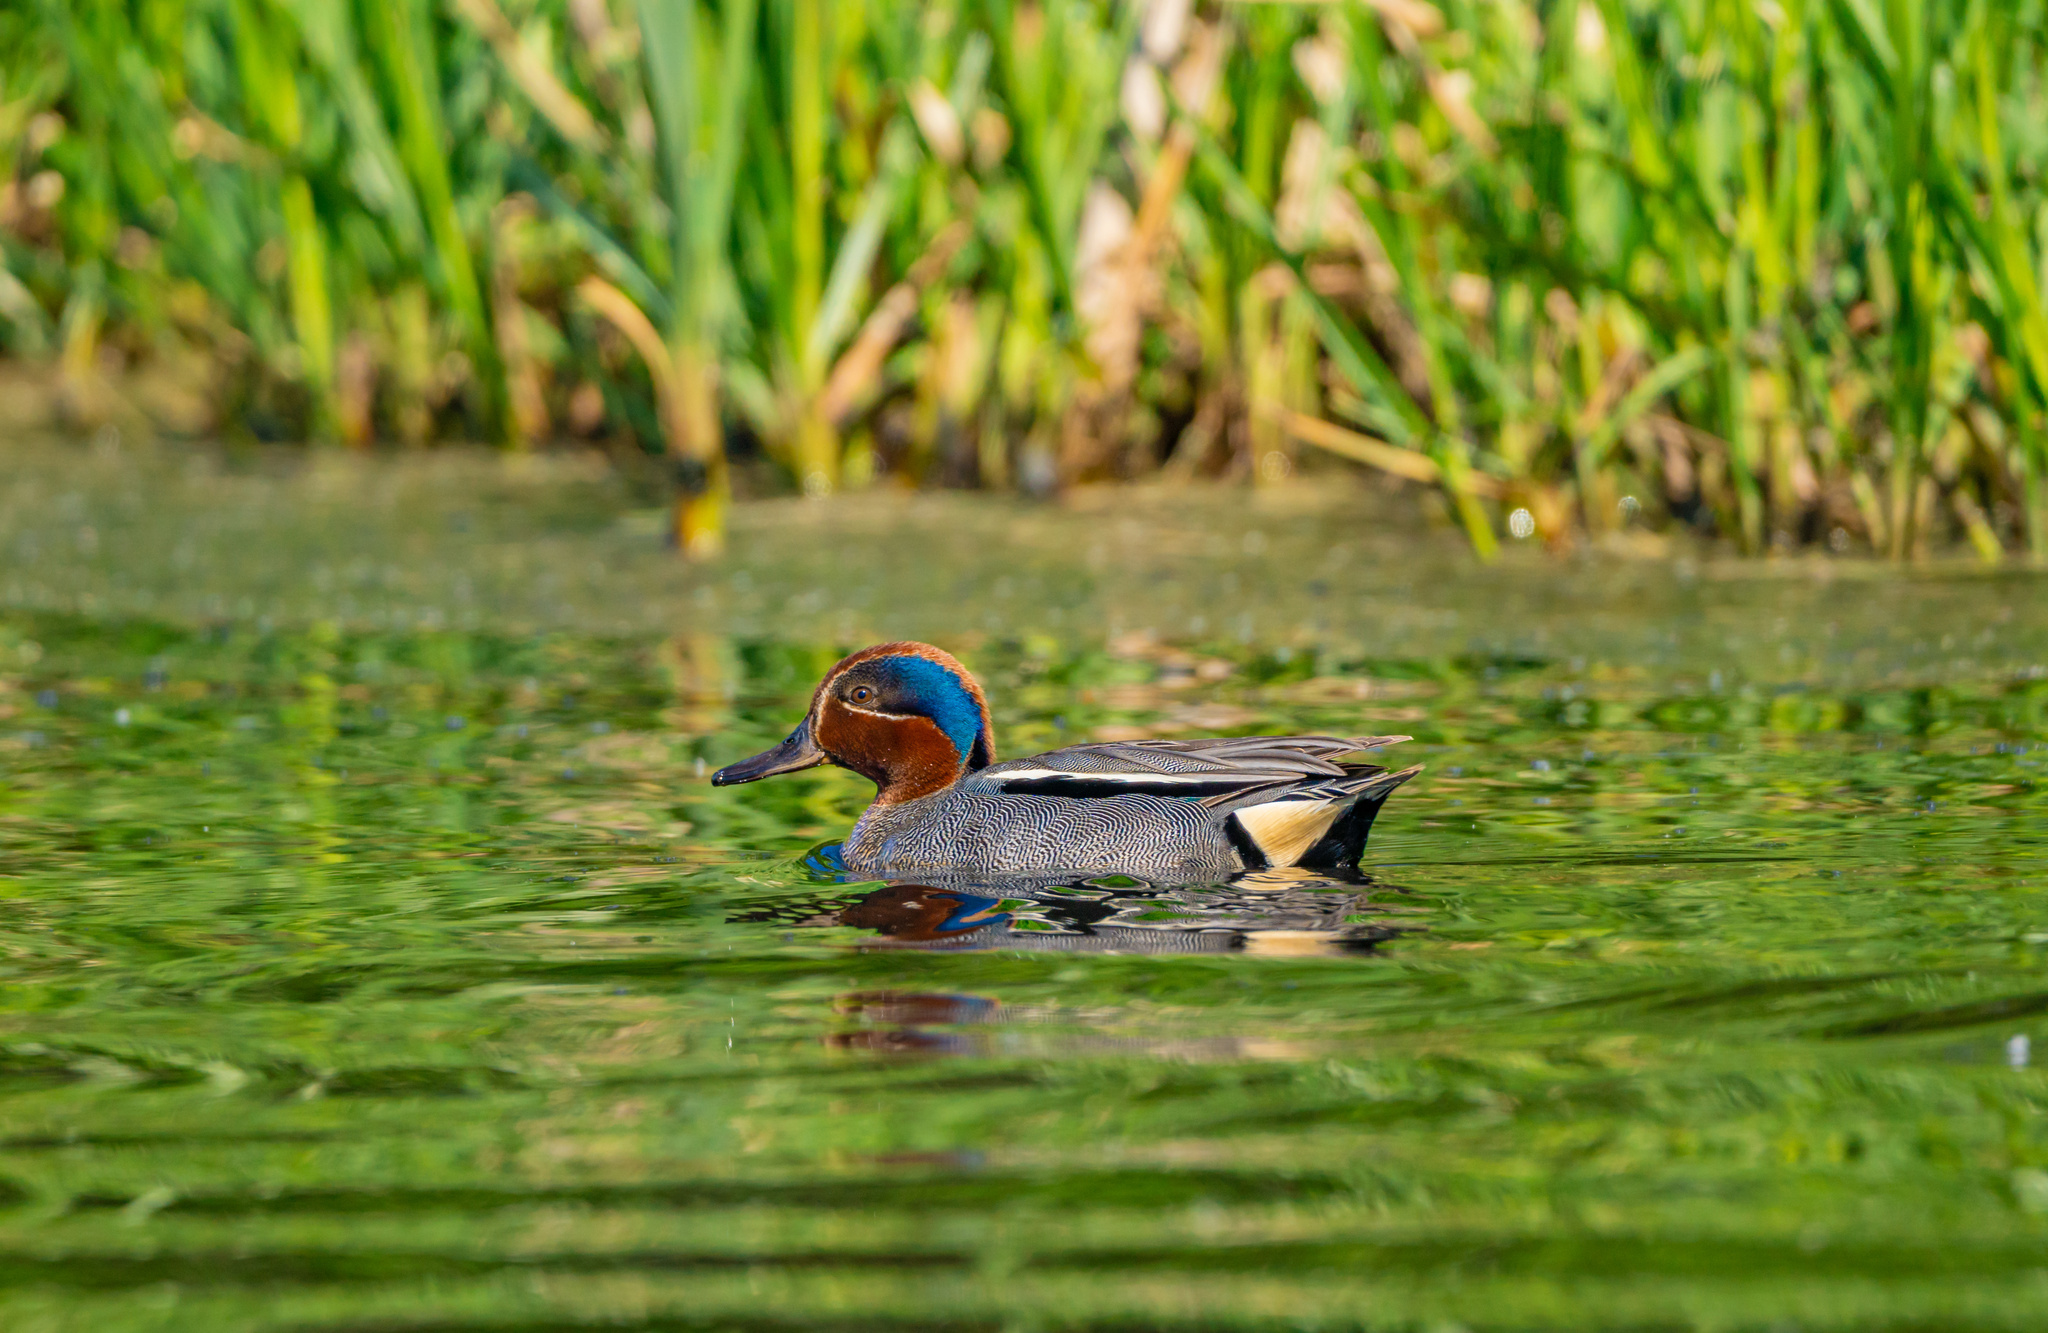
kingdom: Animalia
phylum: Chordata
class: Aves
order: Anseriformes
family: Anatidae
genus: Anas
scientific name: Anas crecca
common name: Eurasian teal
